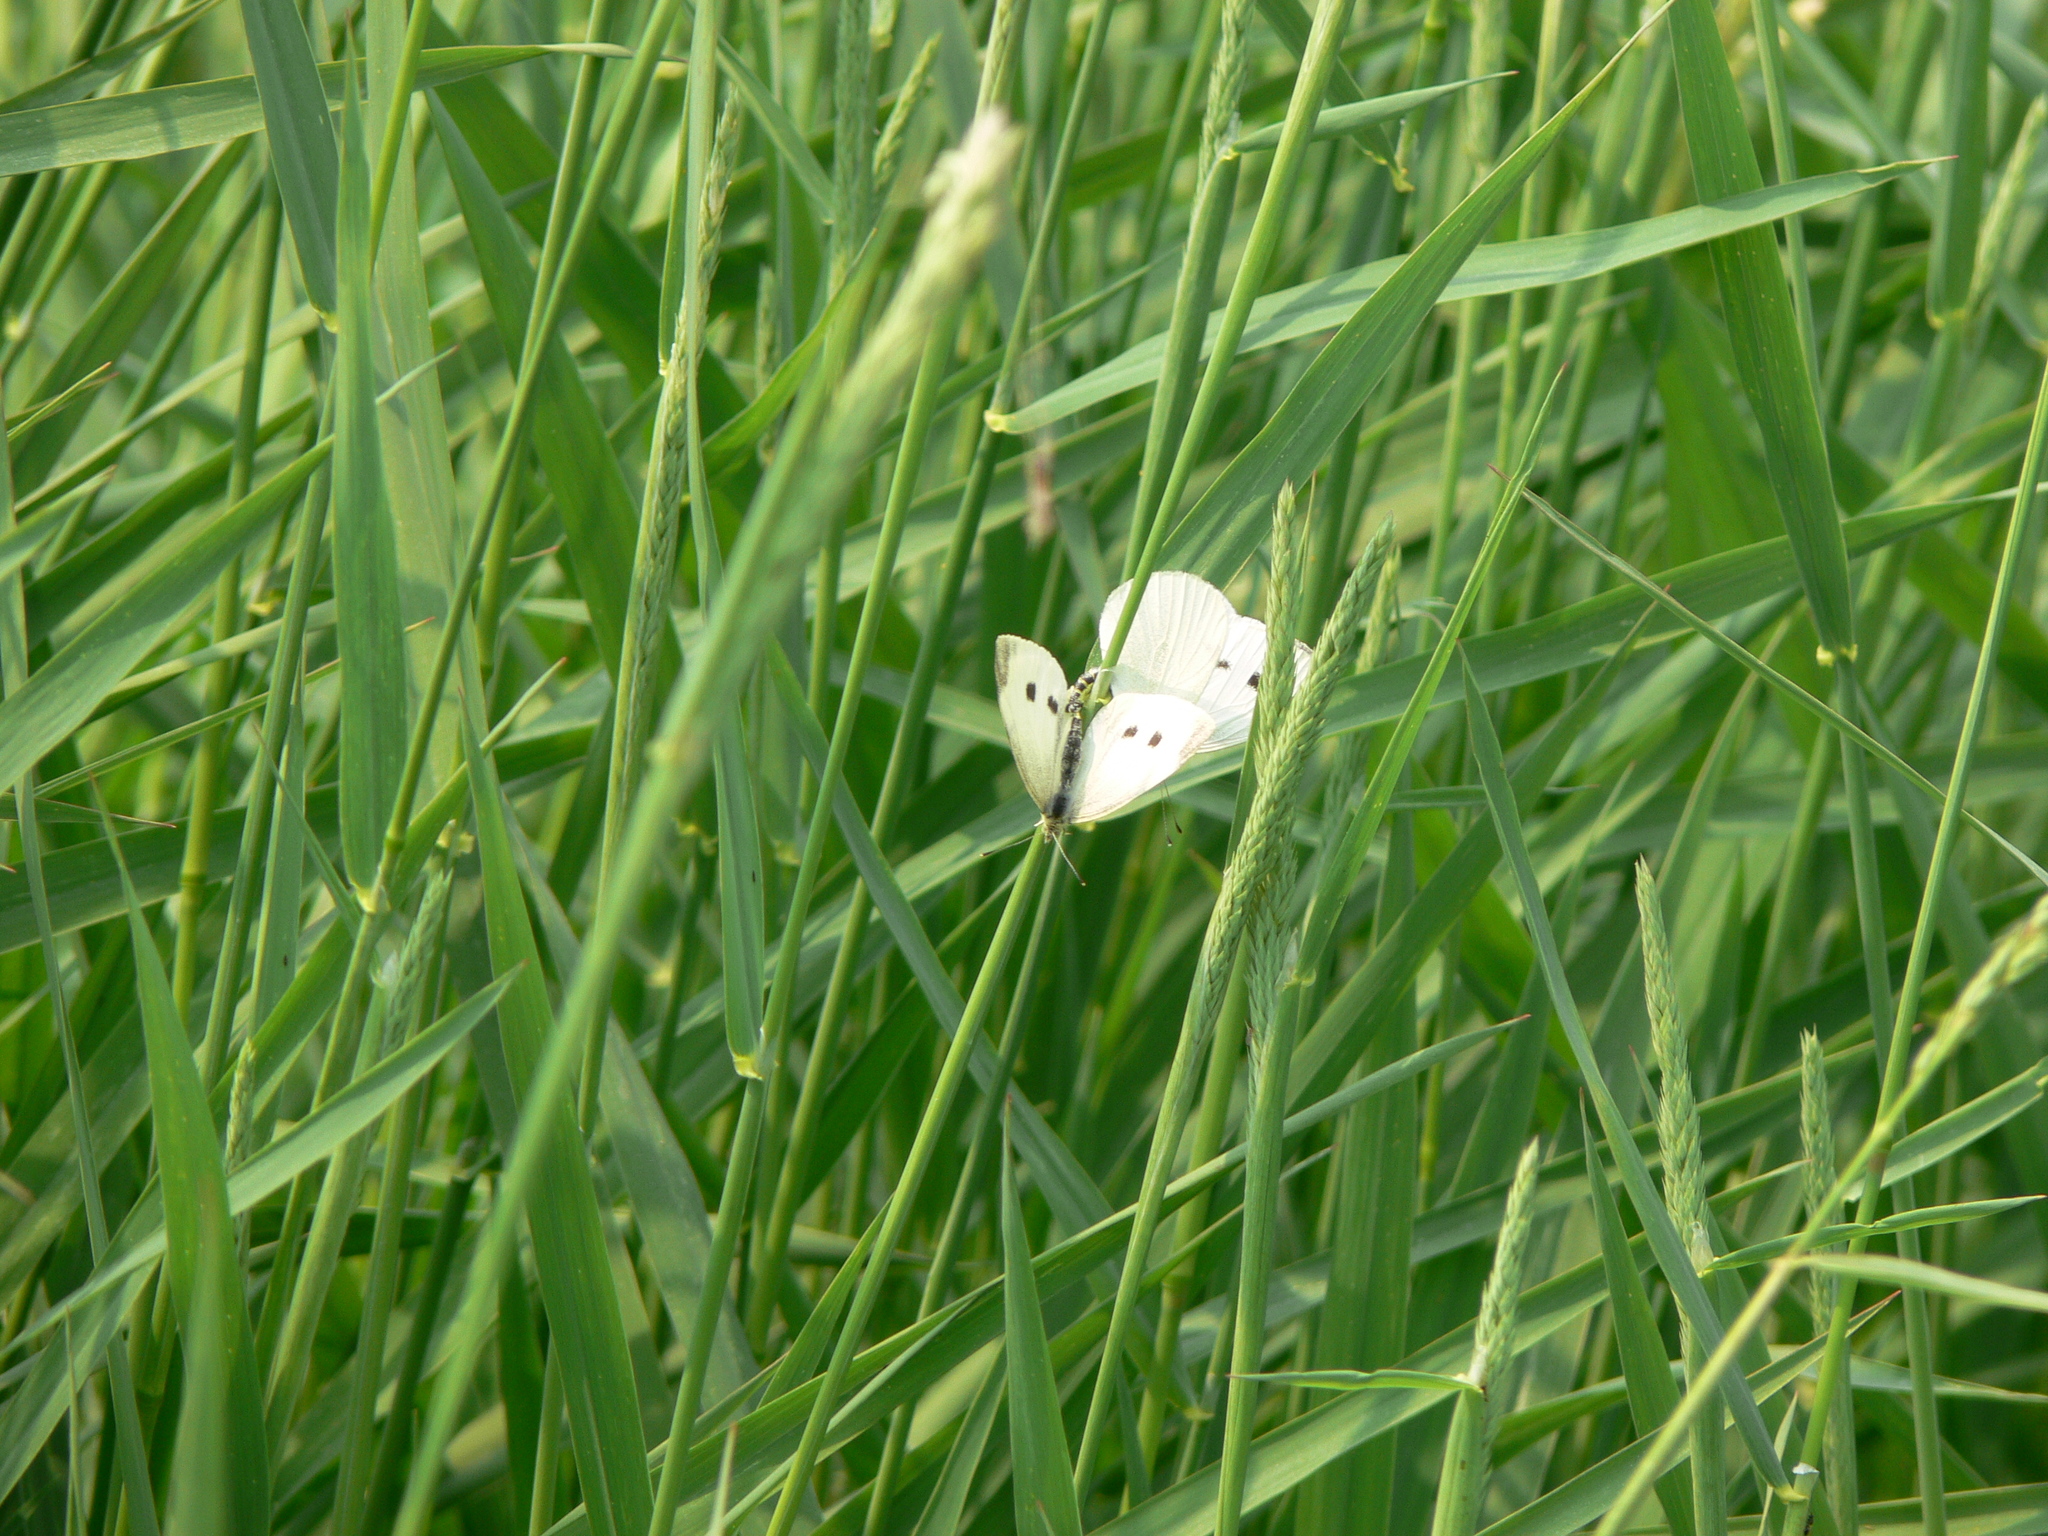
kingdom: Animalia
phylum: Arthropoda
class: Insecta
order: Lepidoptera
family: Pieridae
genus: Pieris
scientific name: Pieris rapae
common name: Small white
